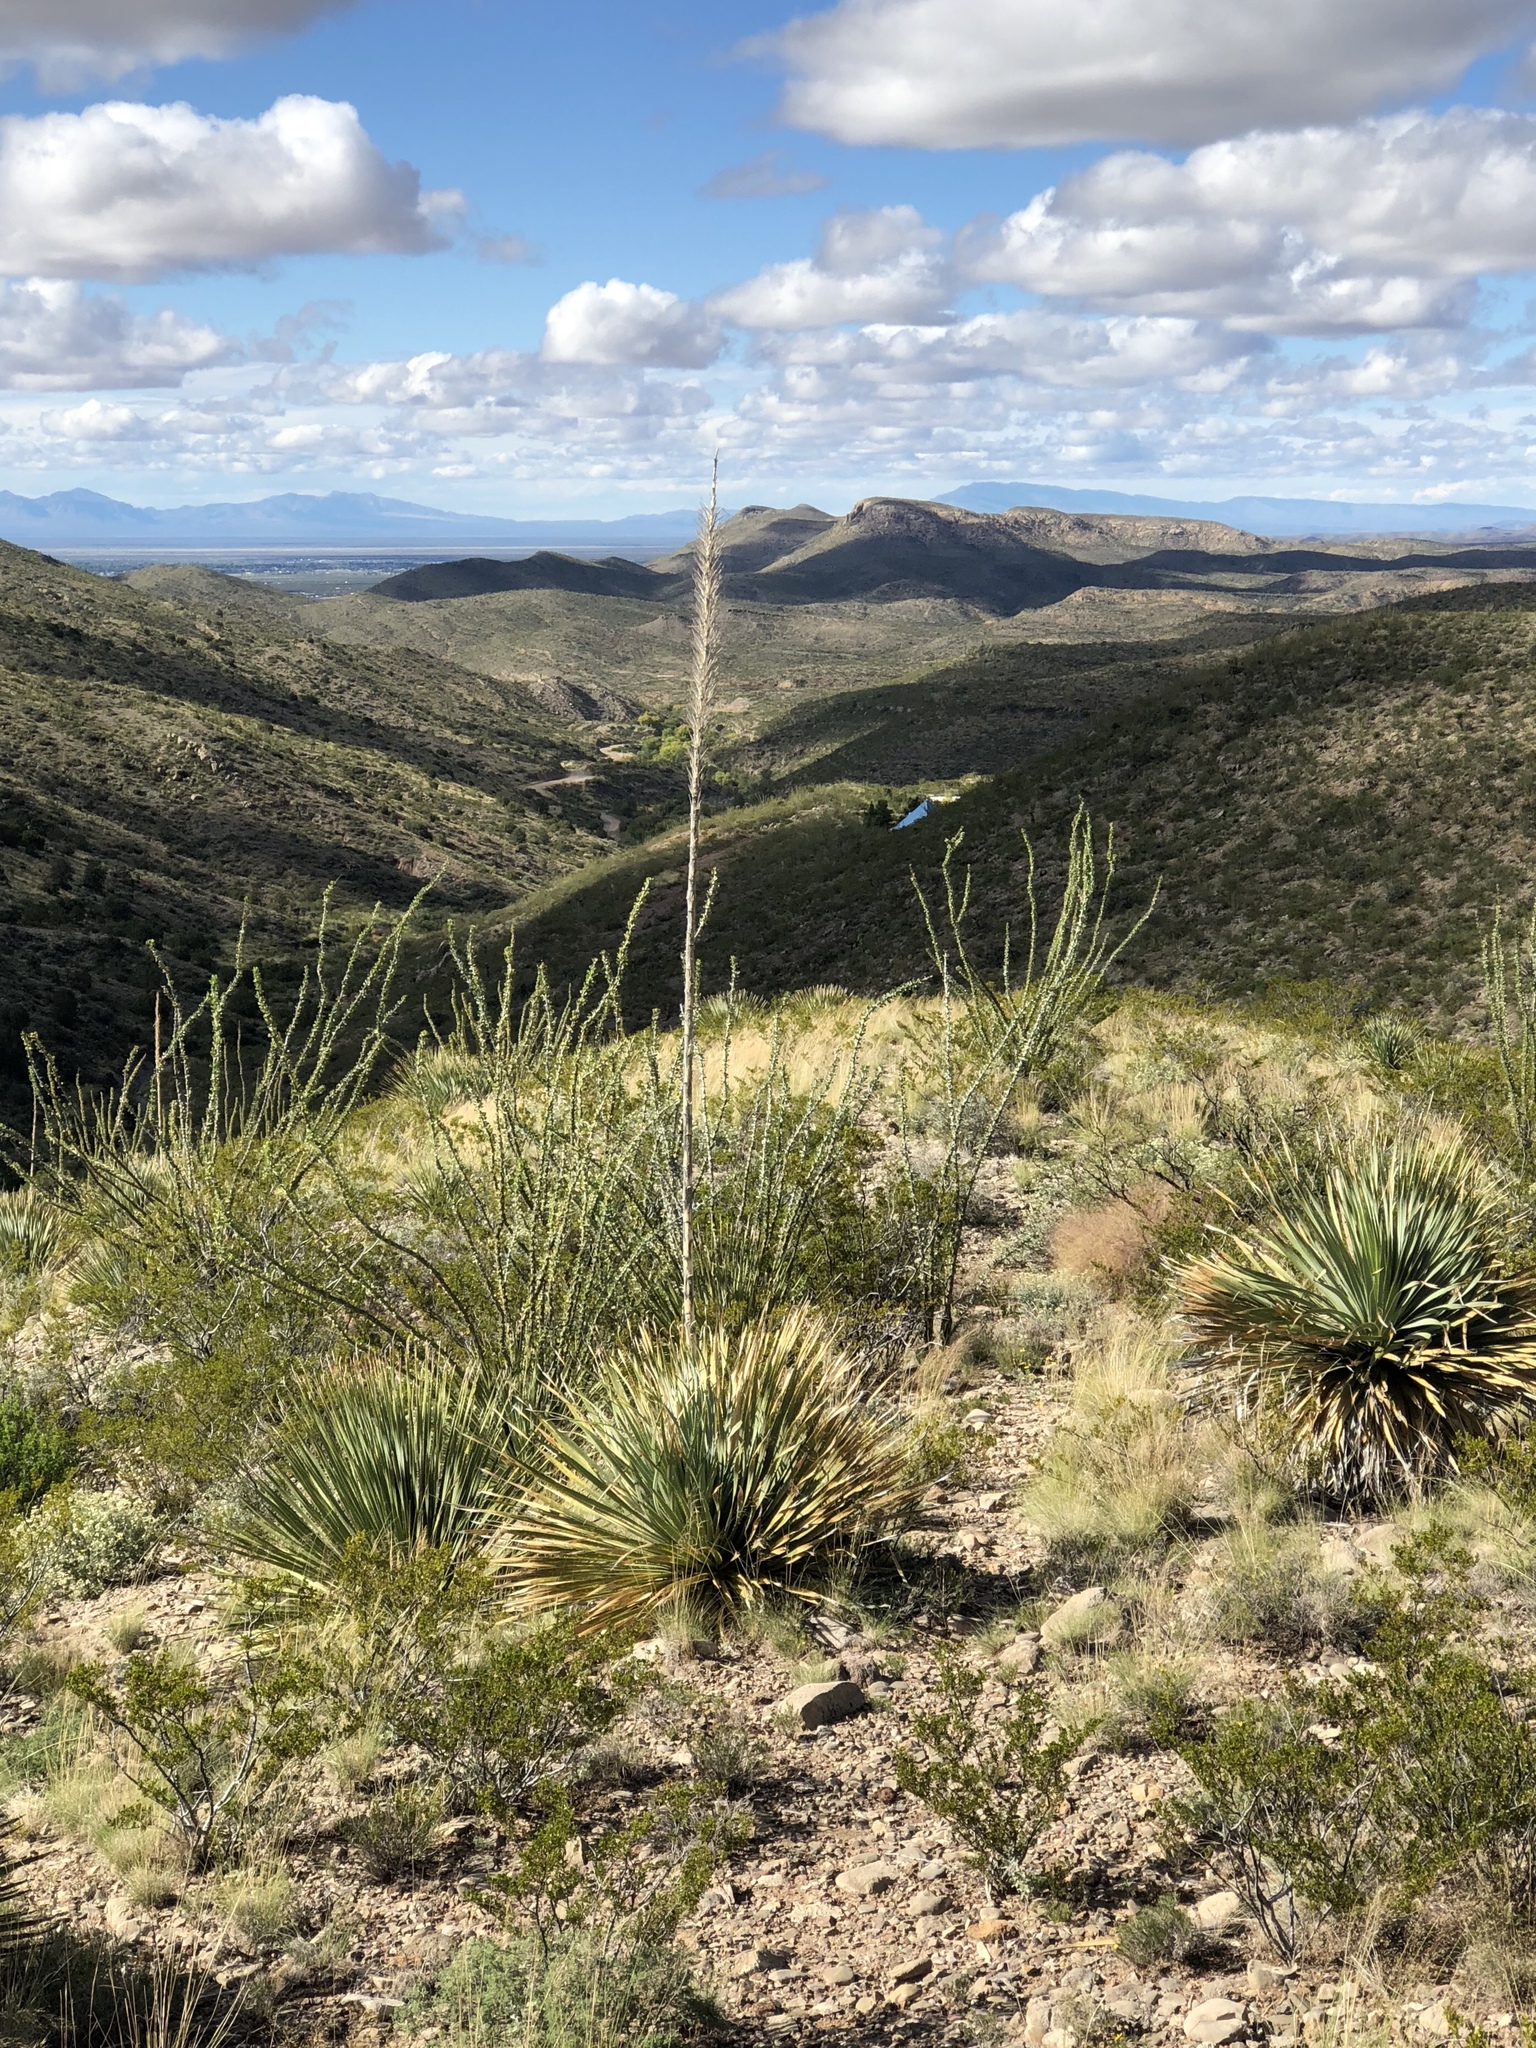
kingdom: Plantae
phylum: Tracheophyta
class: Liliopsida
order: Asparagales
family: Asparagaceae
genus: Dasylirion
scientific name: Dasylirion wheeleri
